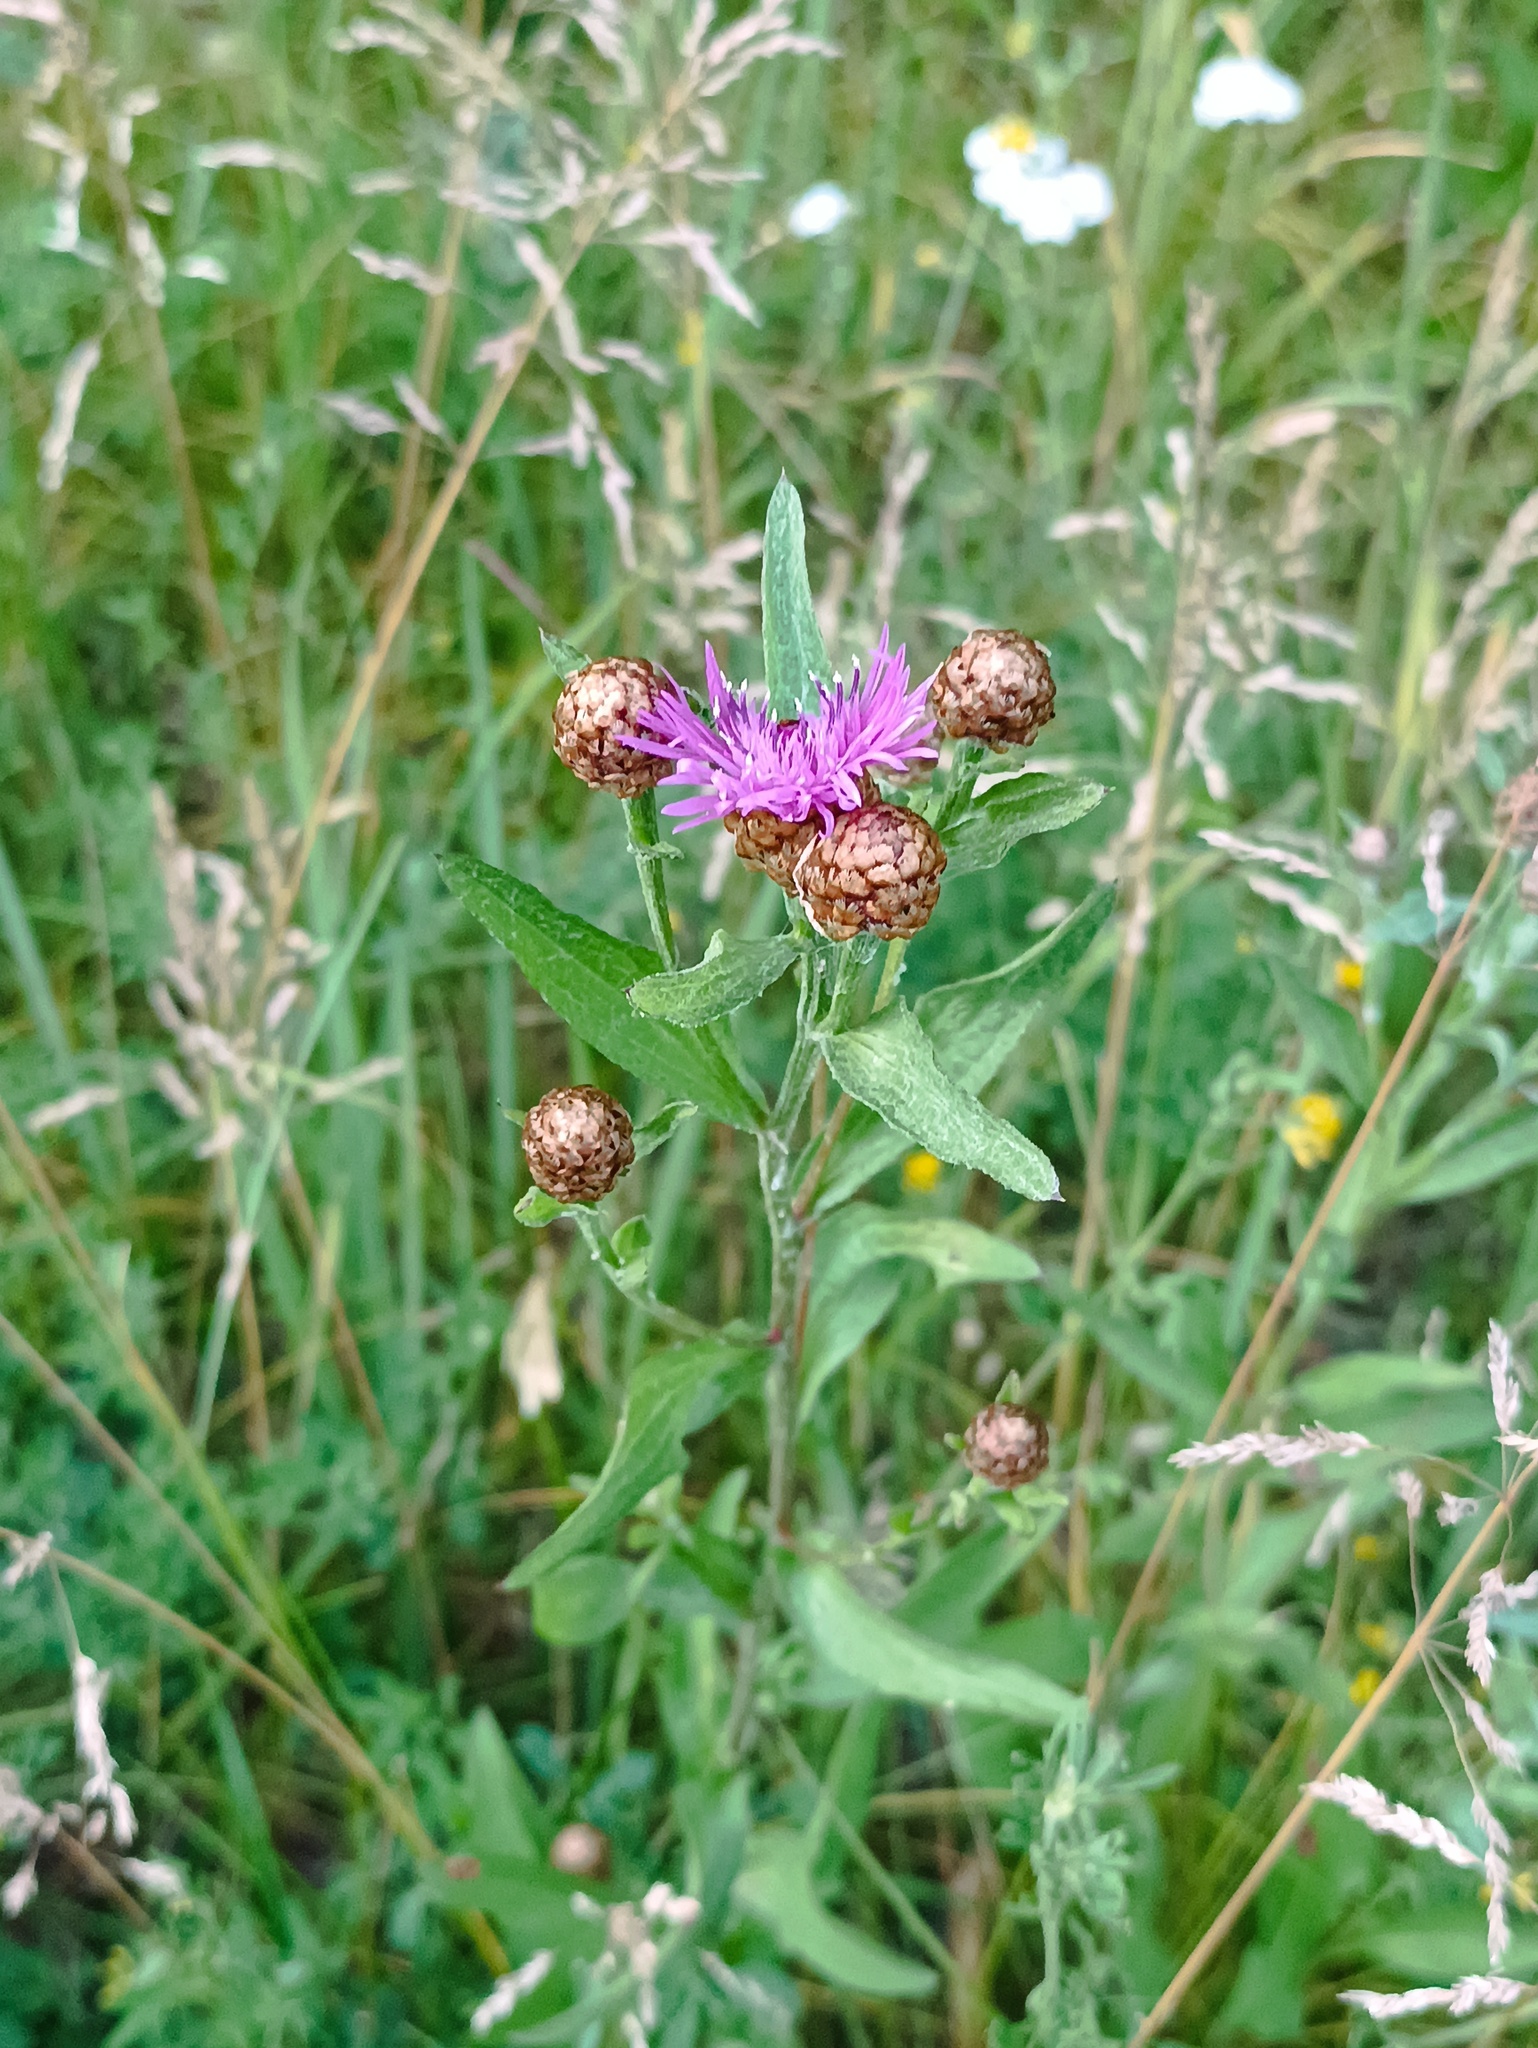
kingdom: Plantae
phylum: Tracheophyta
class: Magnoliopsida
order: Asterales
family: Asteraceae
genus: Centaurea
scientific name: Centaurea jacea
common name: Brown knapweed
